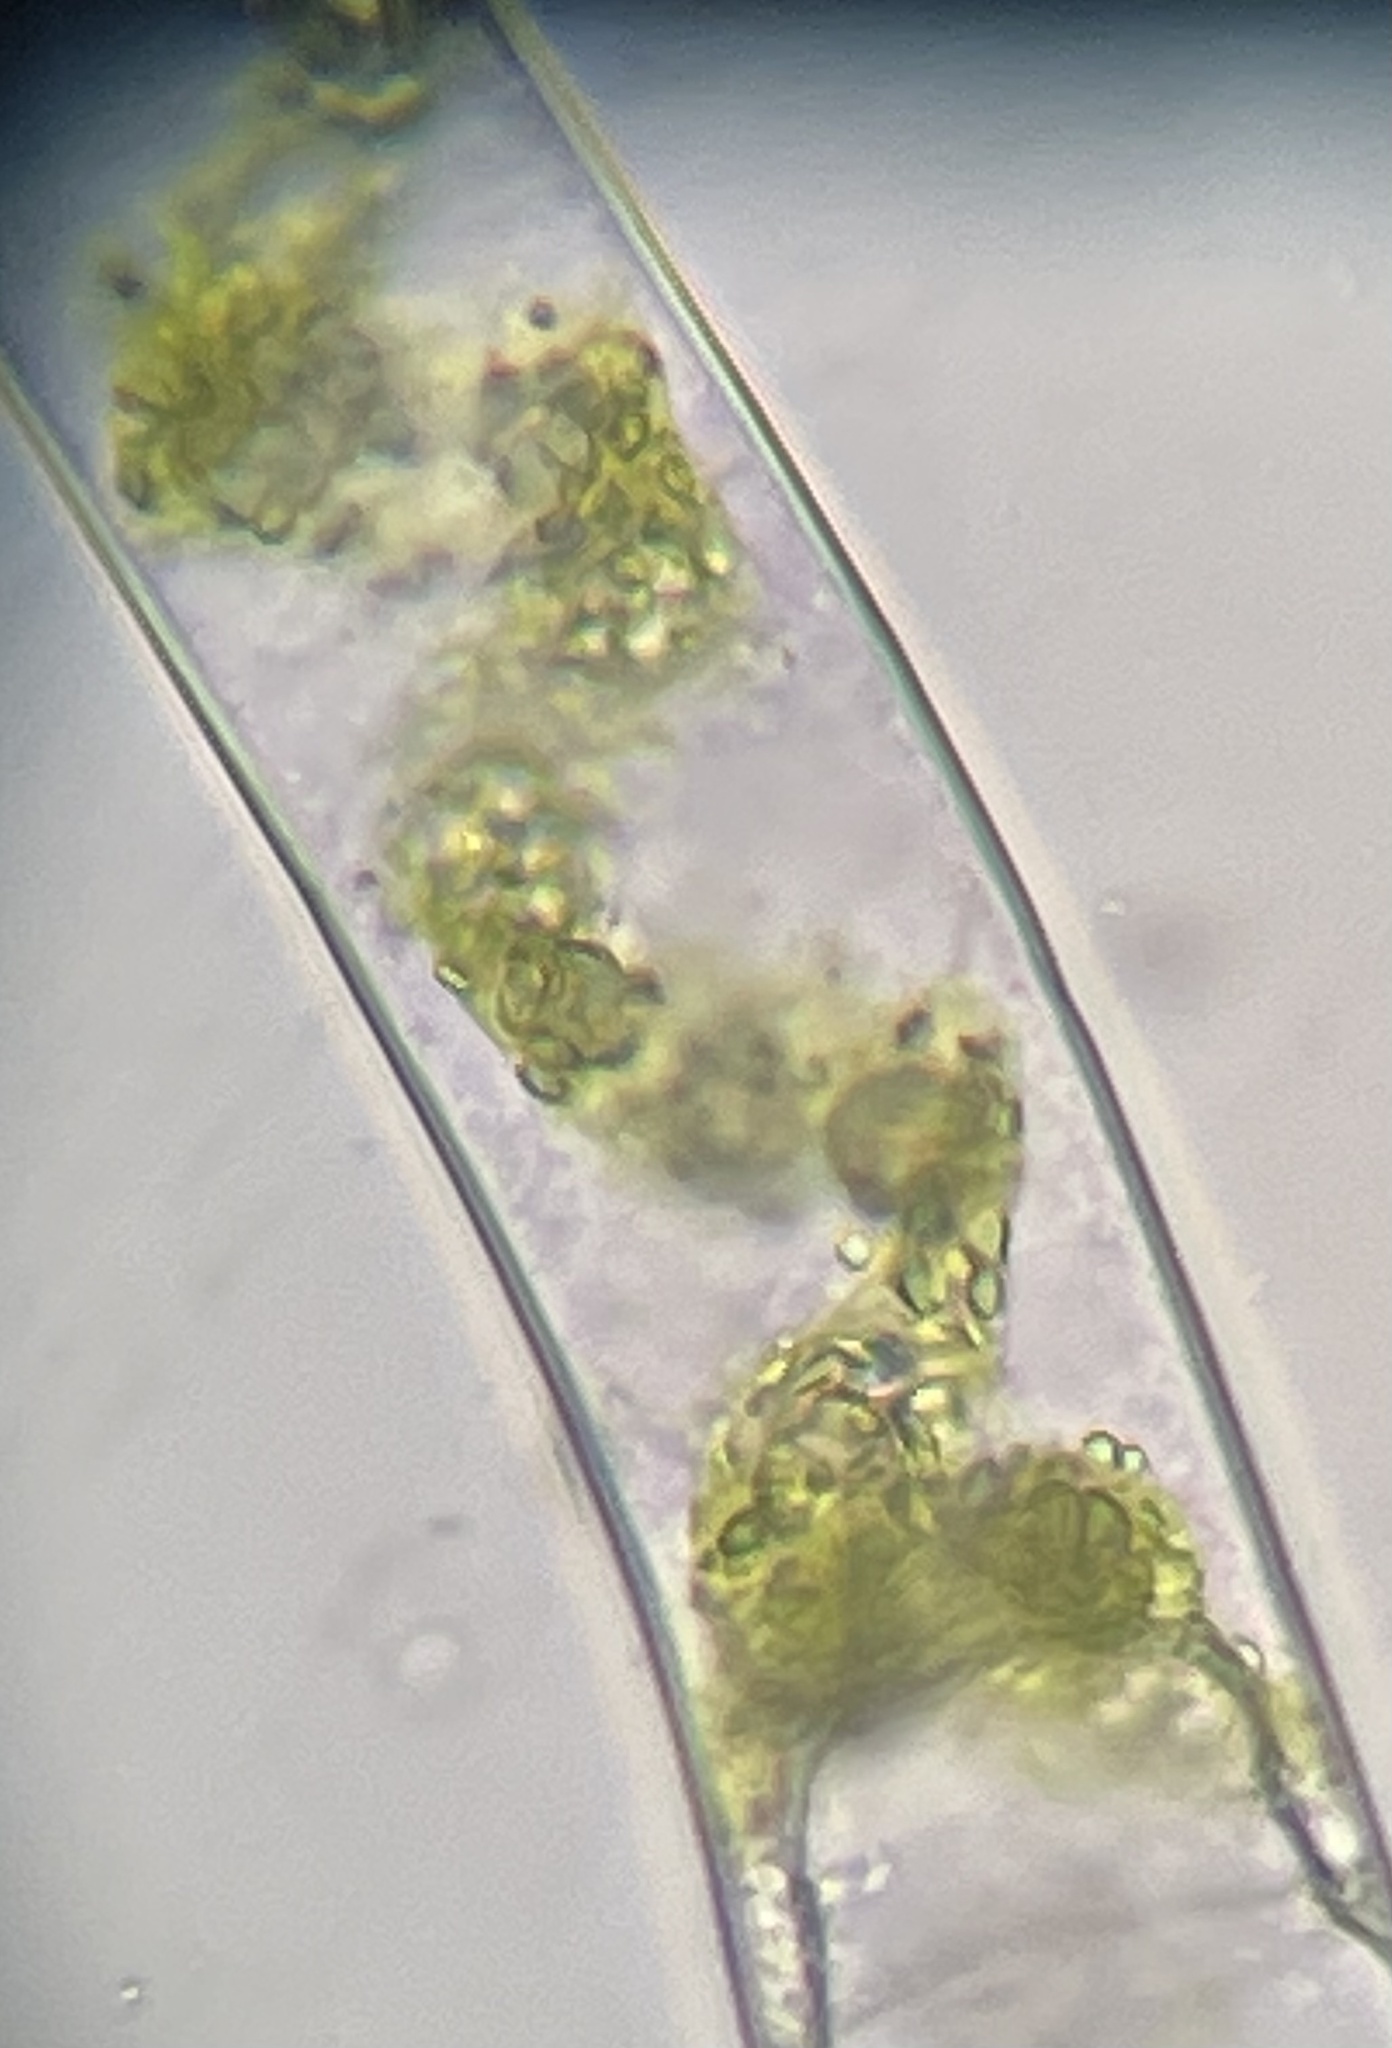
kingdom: Plantae
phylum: Charophyta
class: Zygnematophyceae
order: Zygnematales
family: Zygnemataceae
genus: Spirogyra
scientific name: Spirogyra
